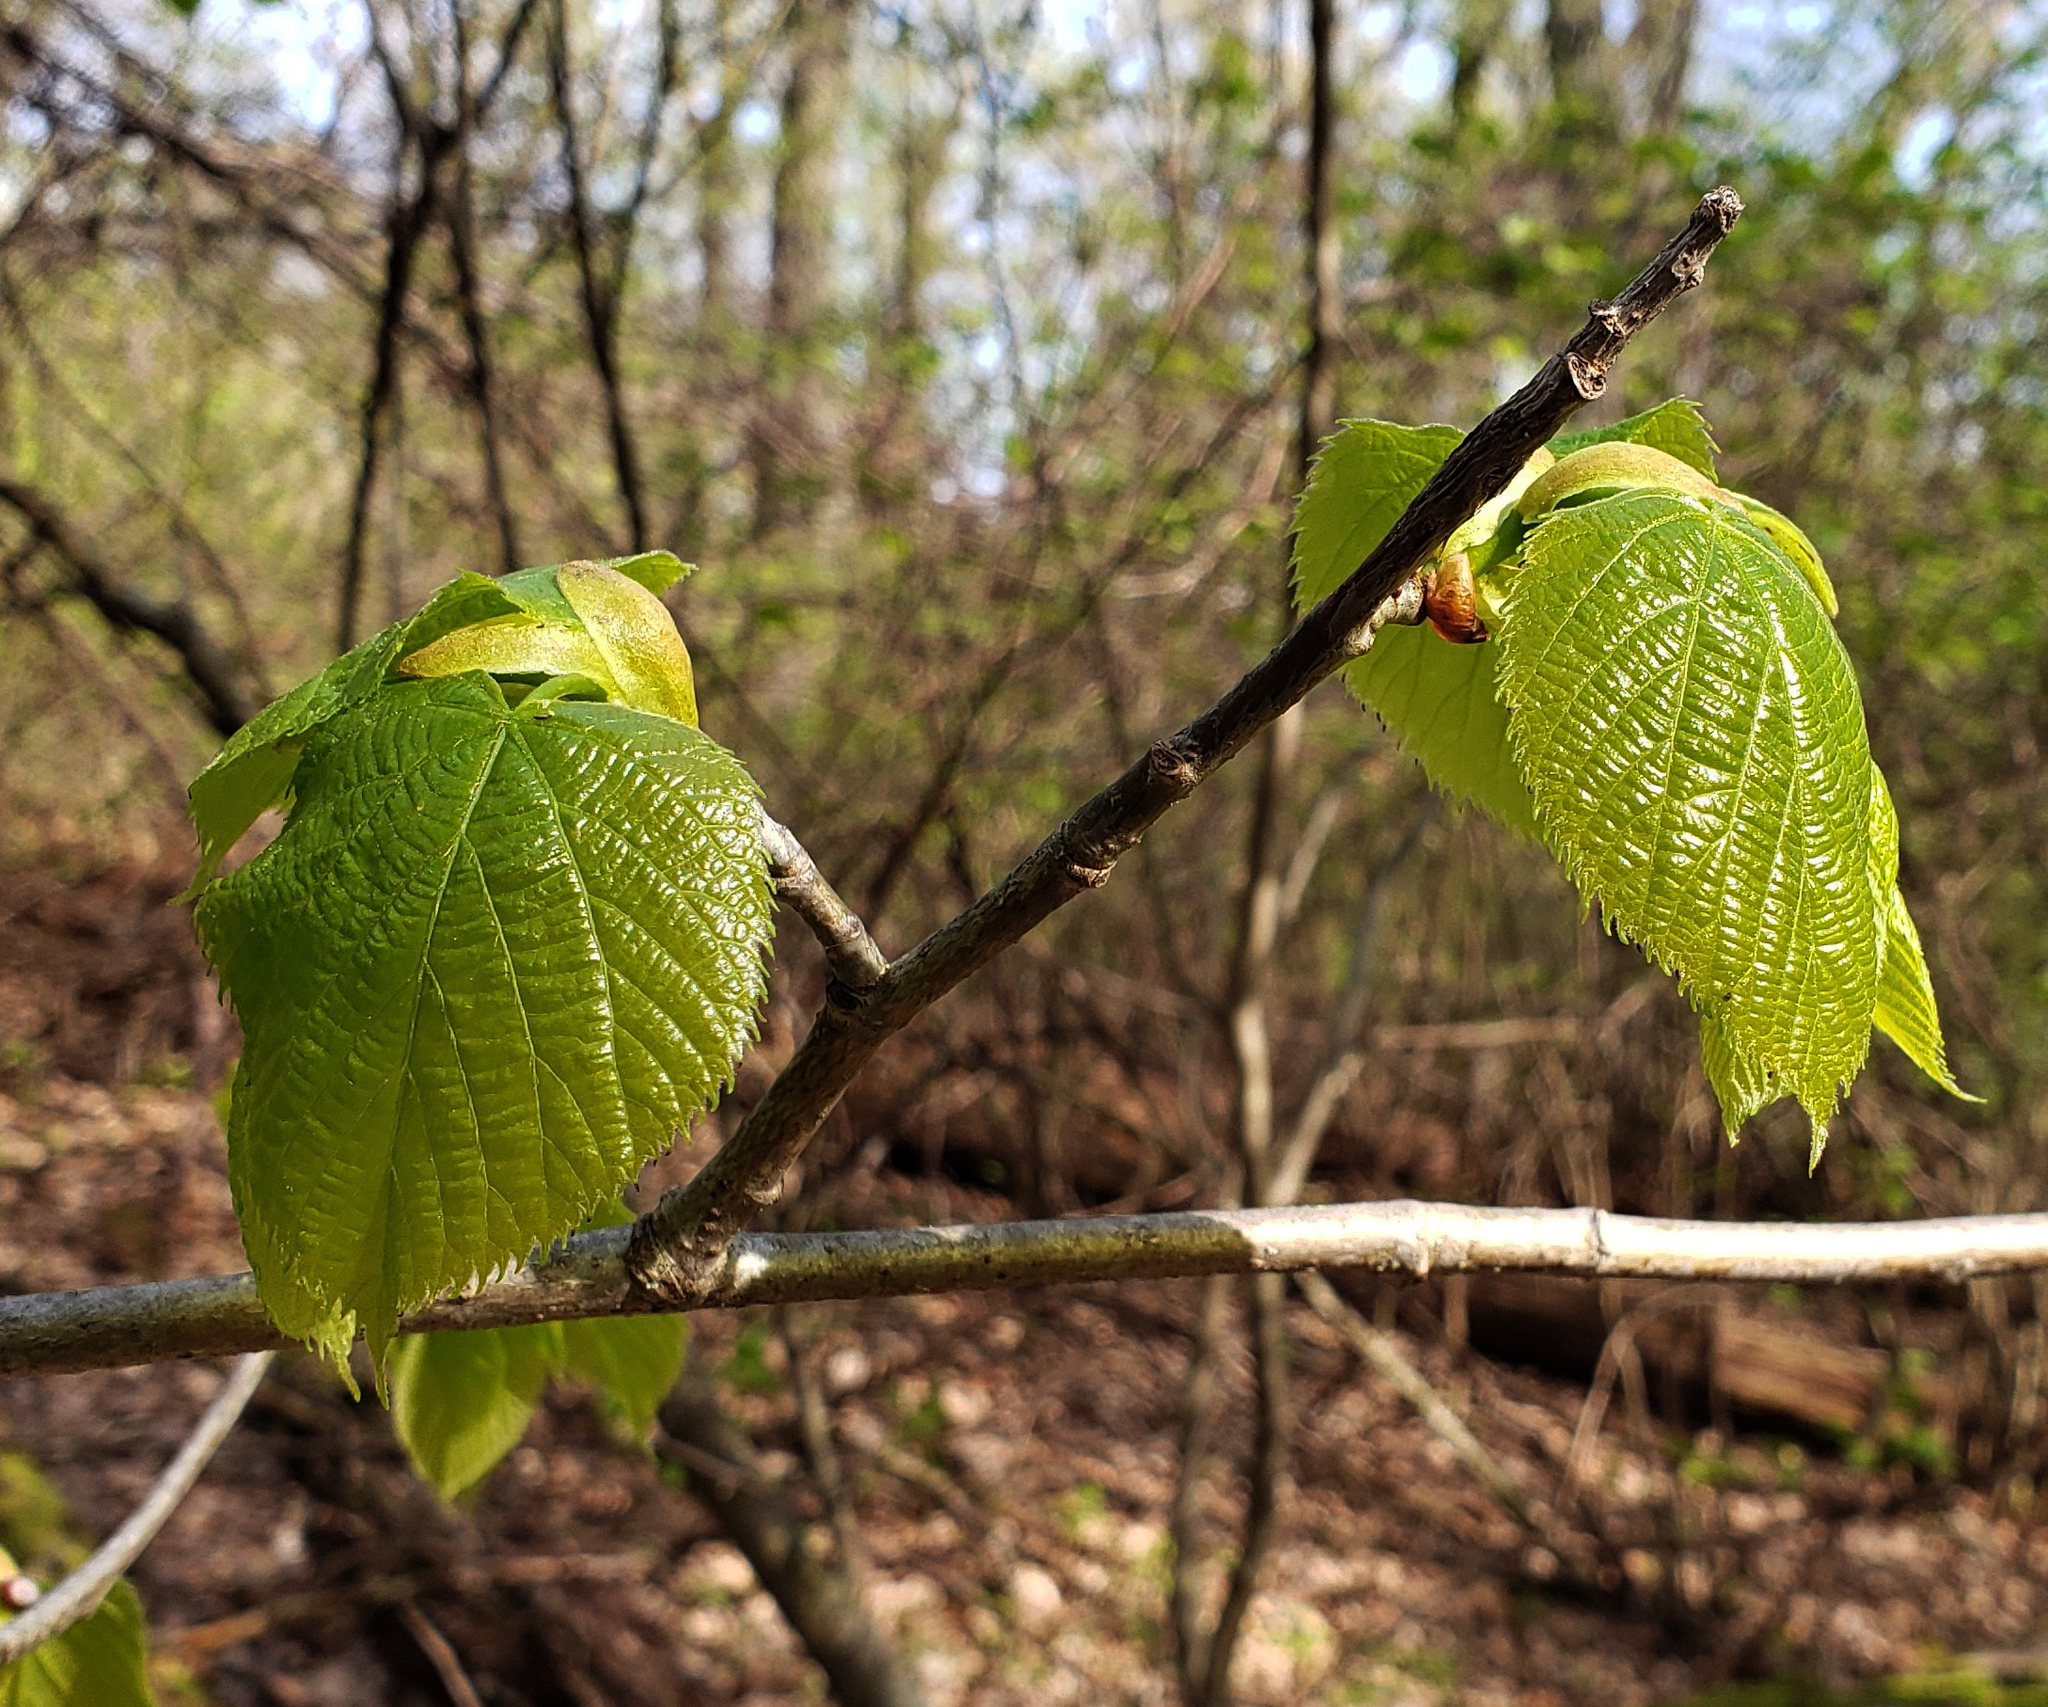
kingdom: Plantae
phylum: Tracheophyta
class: Magnoliopsida
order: Malvales
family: Malvaceae
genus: Tilia
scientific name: Tilia americana
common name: Basswood
